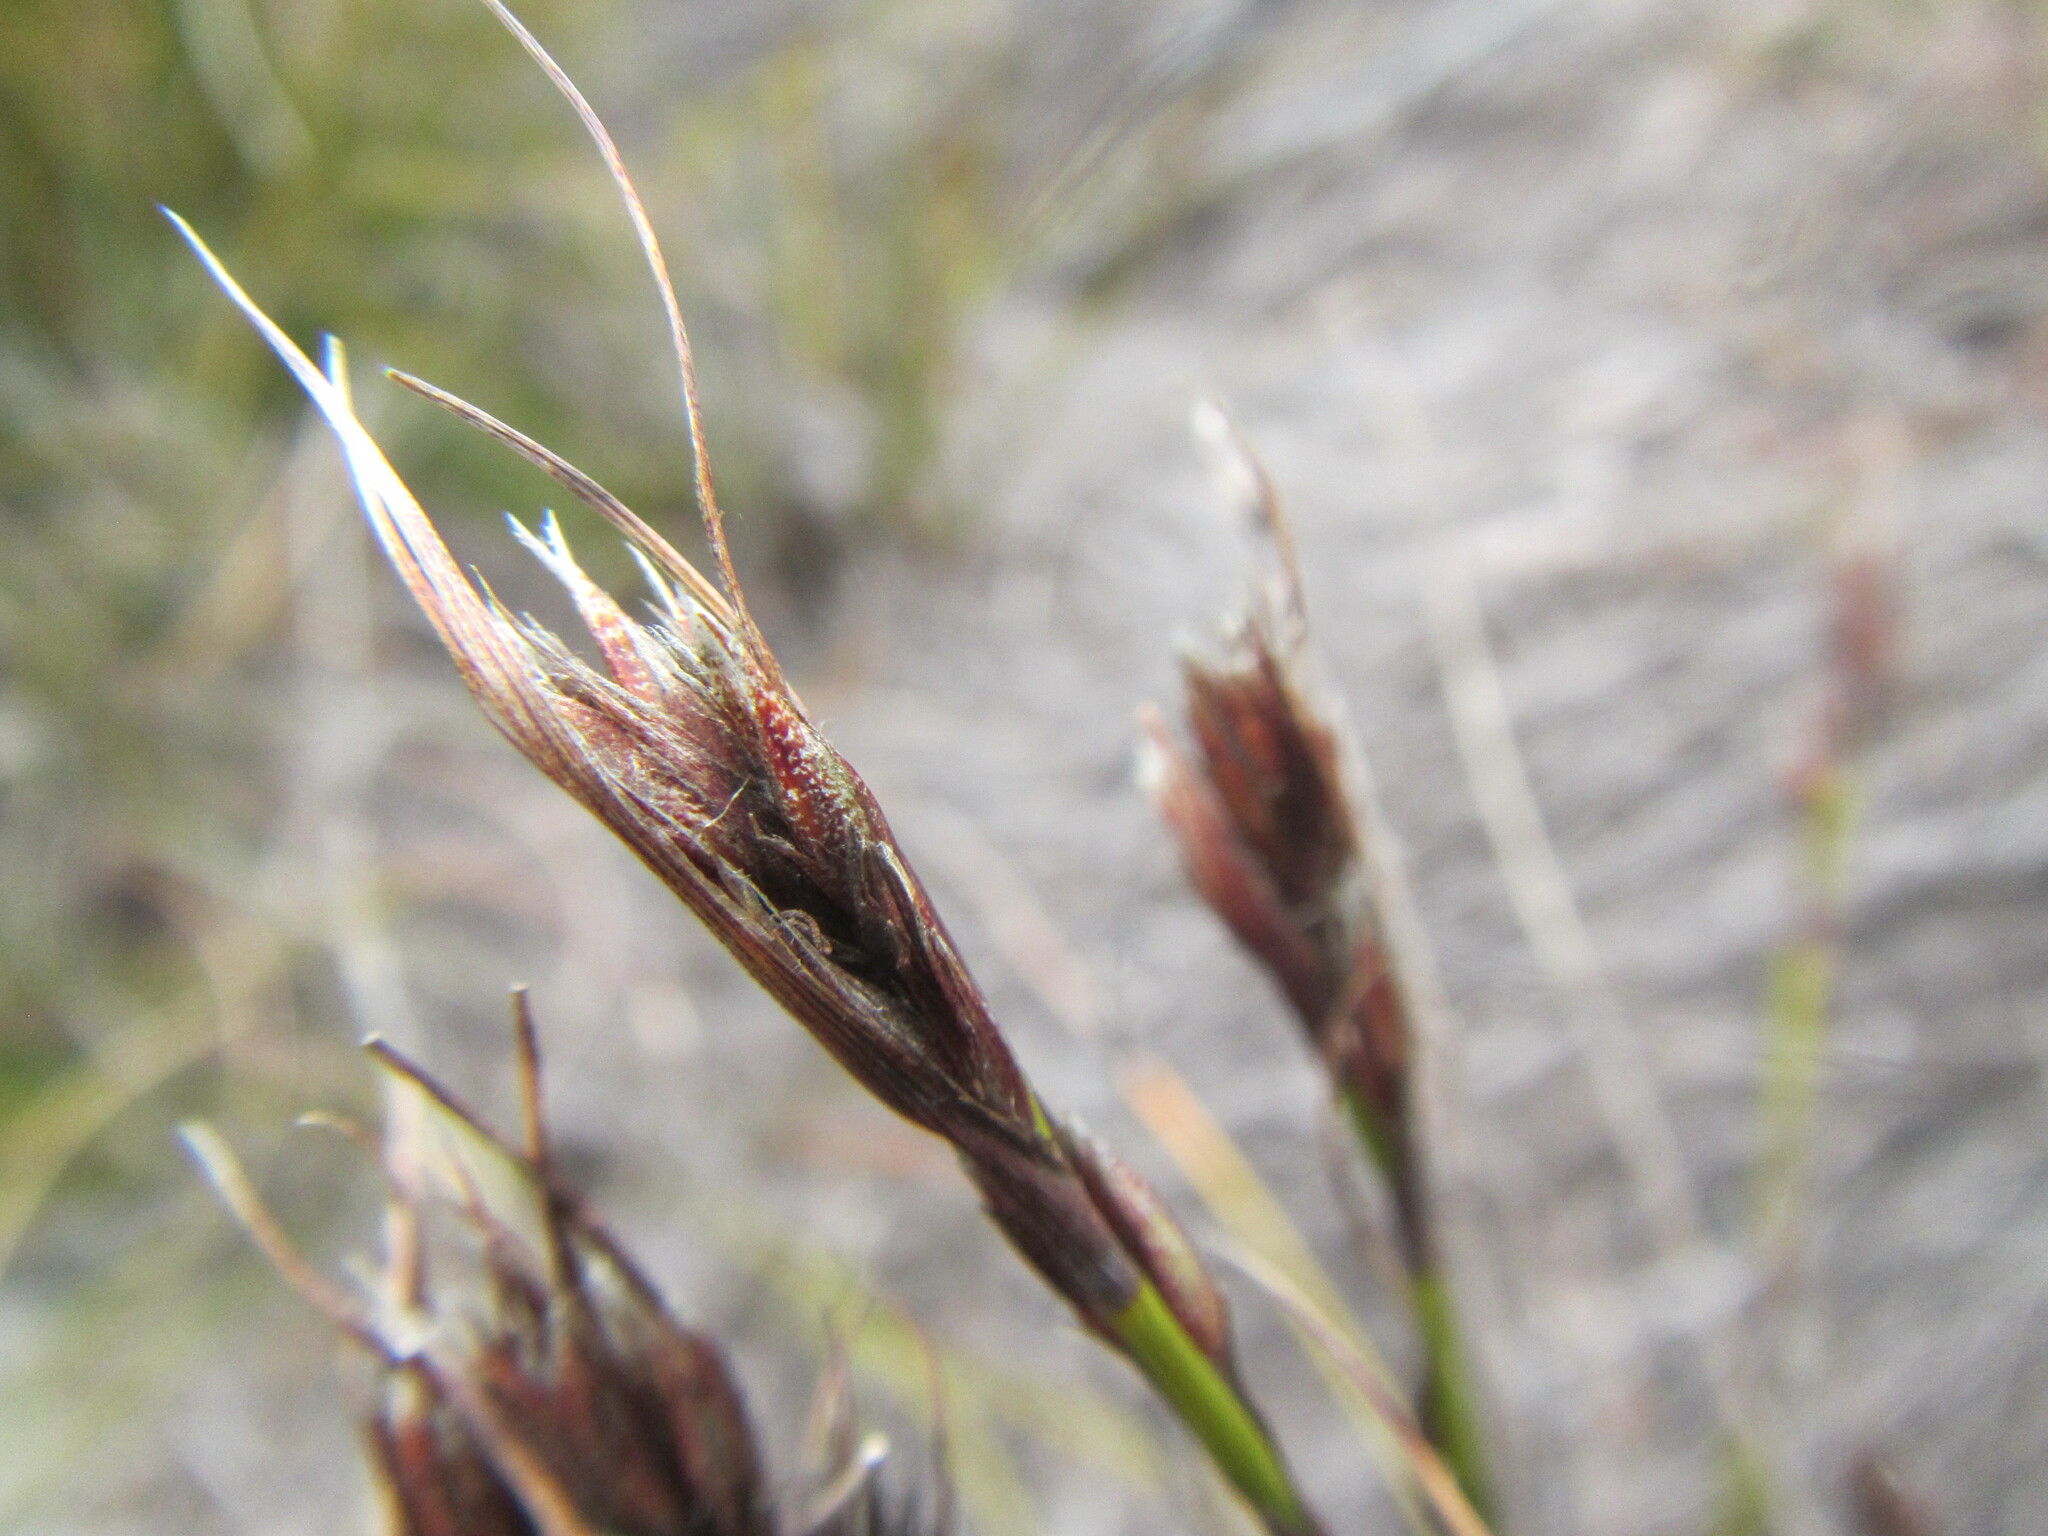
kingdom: Plantae
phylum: Tracheophyta
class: Liliopsida
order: Poales
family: Cyperaceae
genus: Tetraria
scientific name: Tetraria maculata
